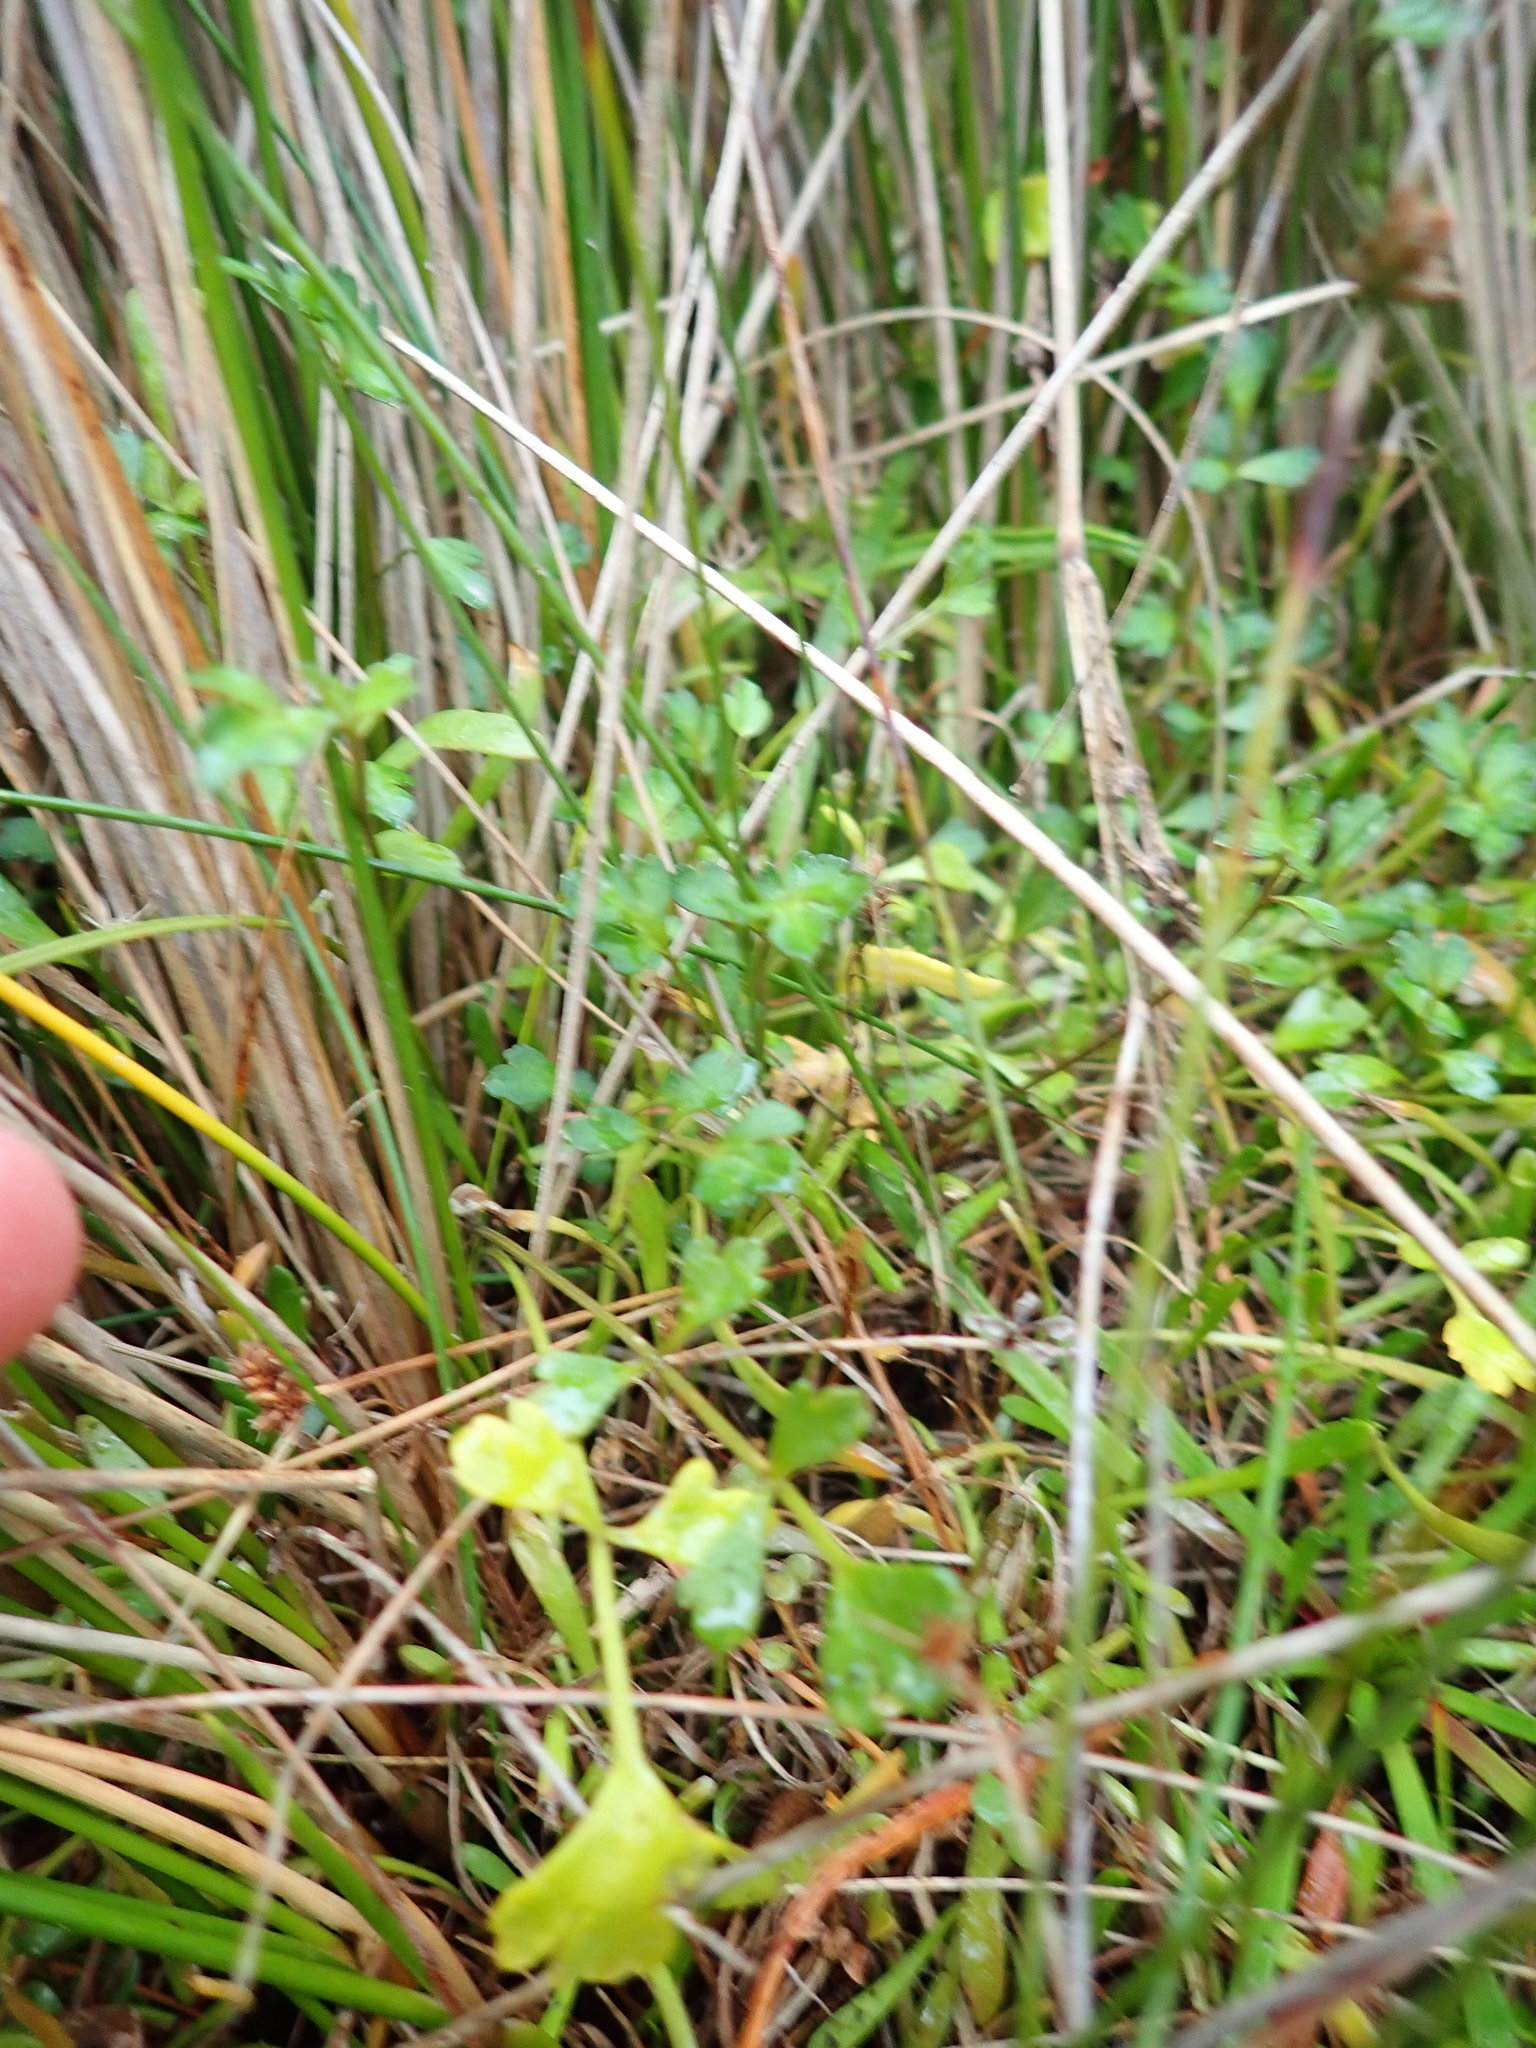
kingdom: Plantae
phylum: Tracheophyta
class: Magnoliopsida
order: Apiales
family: Apiaceae
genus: Apium
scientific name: Apium prostratum
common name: Prostrate marshwort
